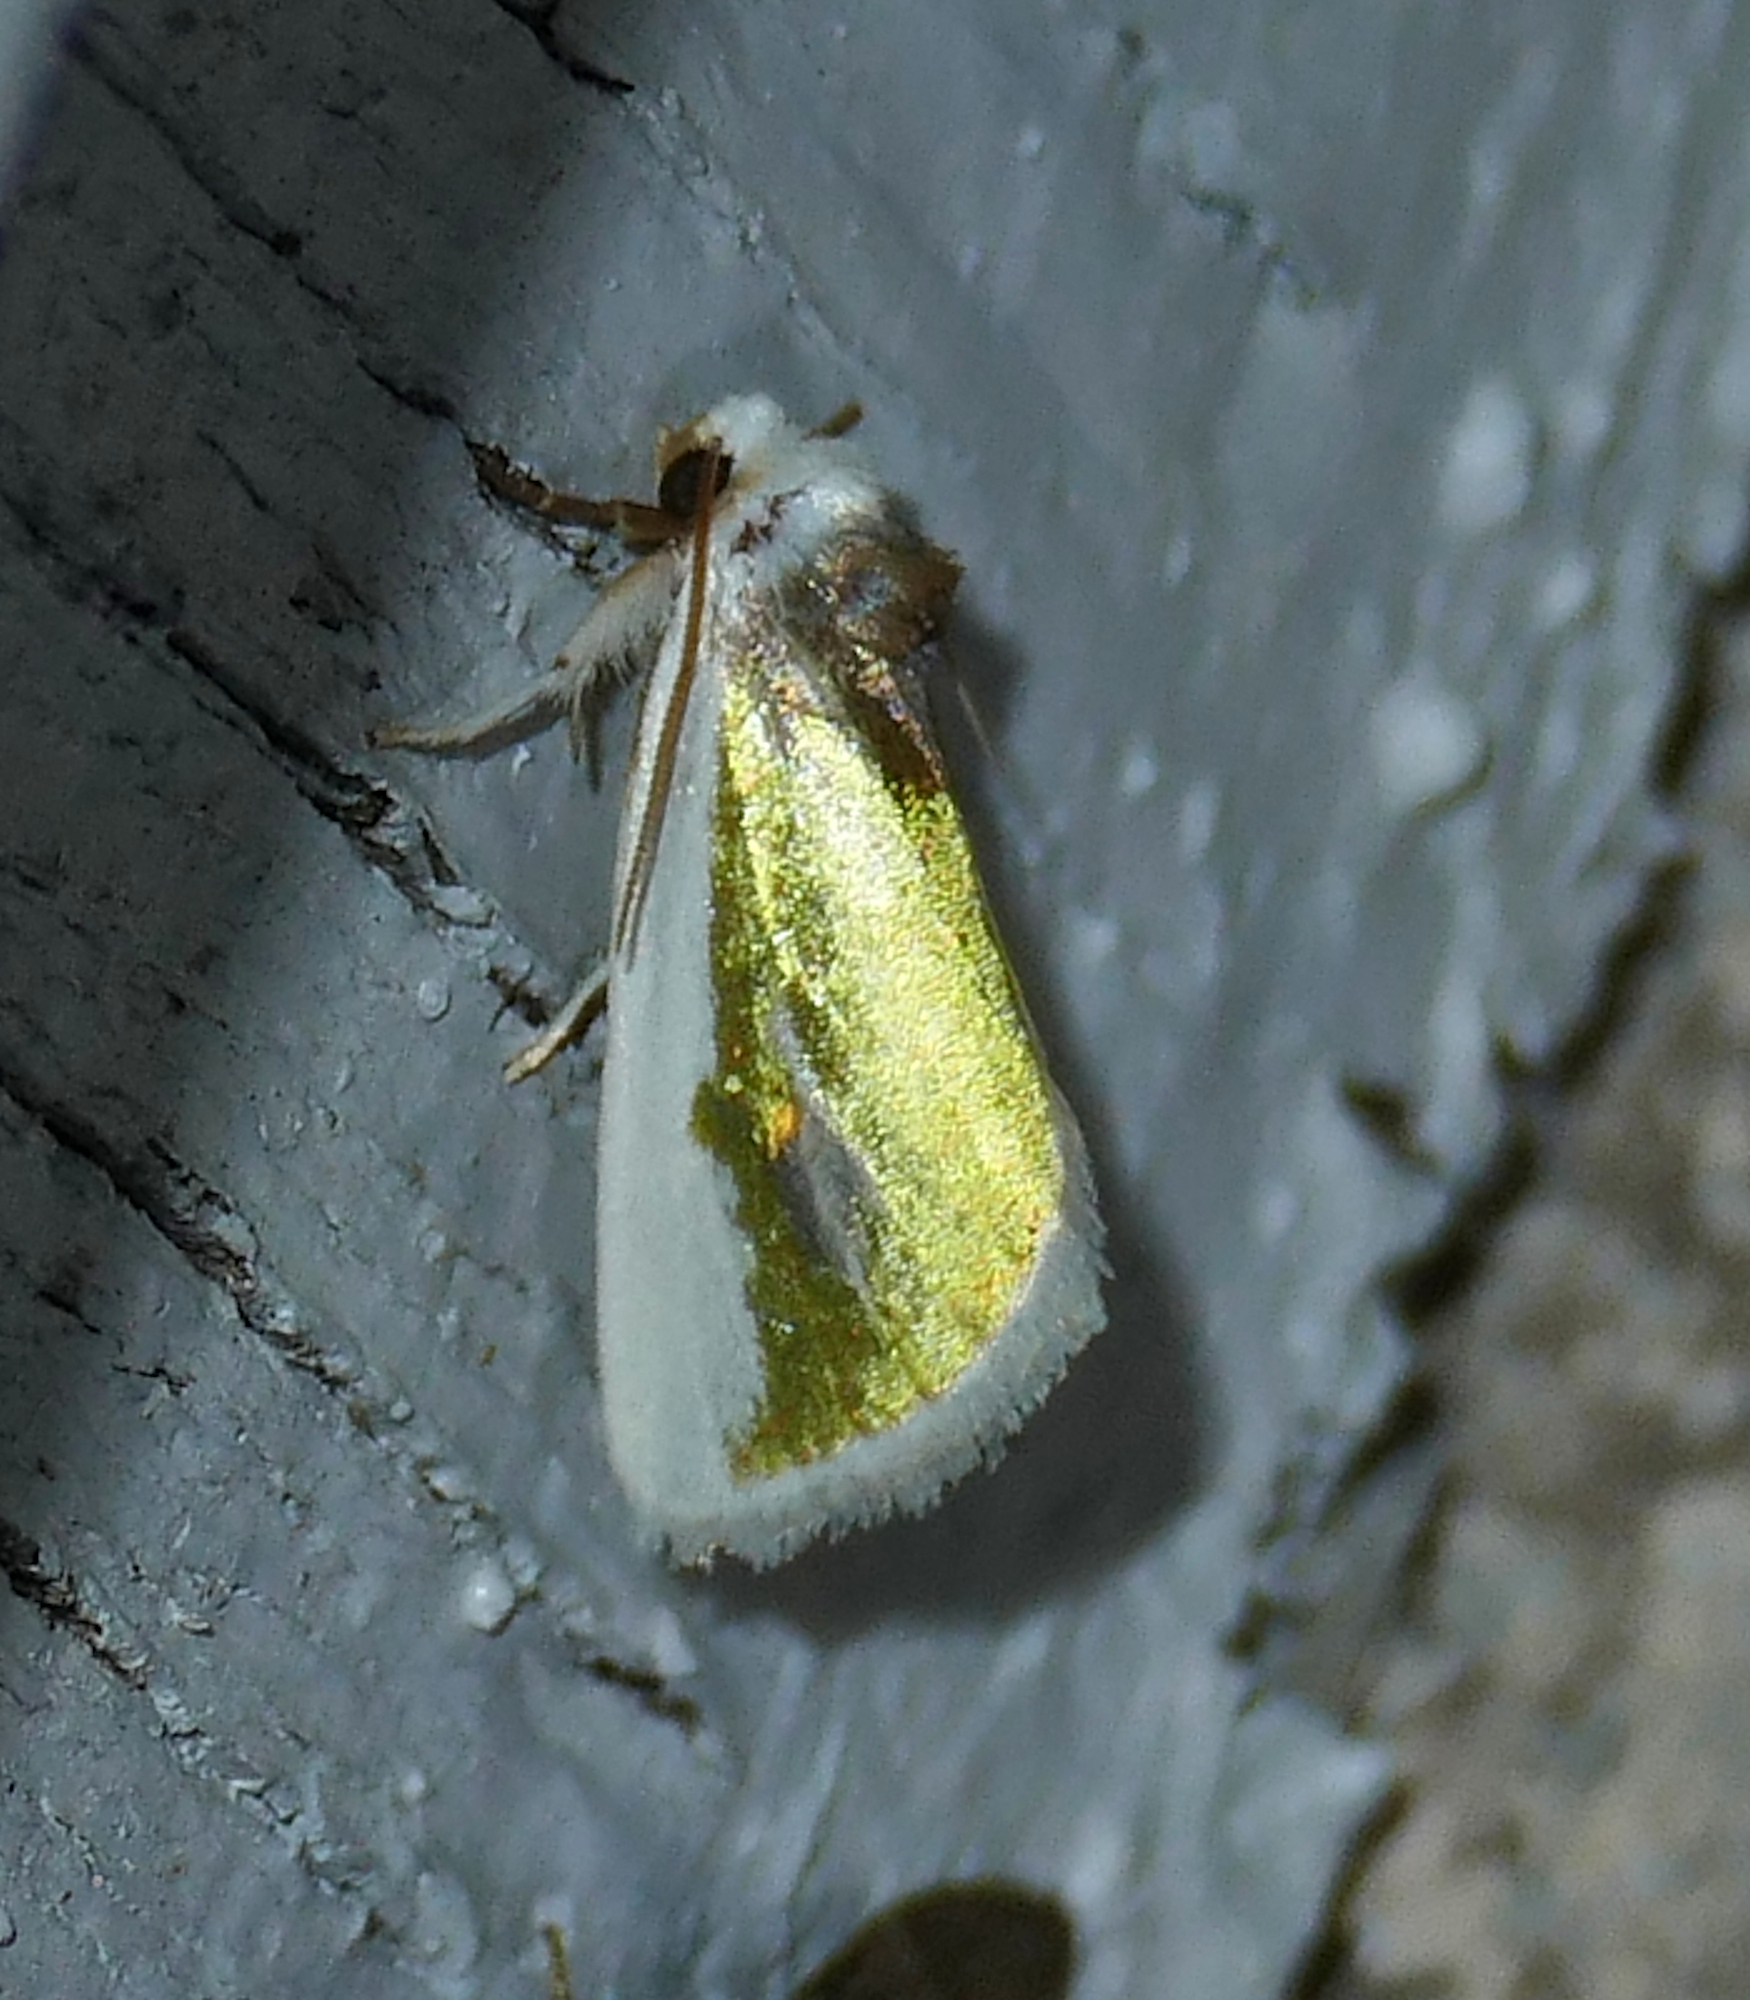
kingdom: Animalia
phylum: Arthropoda
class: Insecta
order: Lepidoptera
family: Noctuidae
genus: Neumoegenia
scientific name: Neumoegenia poetica
